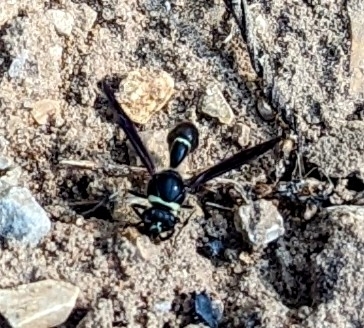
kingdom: Animalia
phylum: Arthropoda
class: Insecta
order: Hymenoptera
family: Vespidae
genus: Eumenes
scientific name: Eumenes fraternus
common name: Fraternal potter wasp
